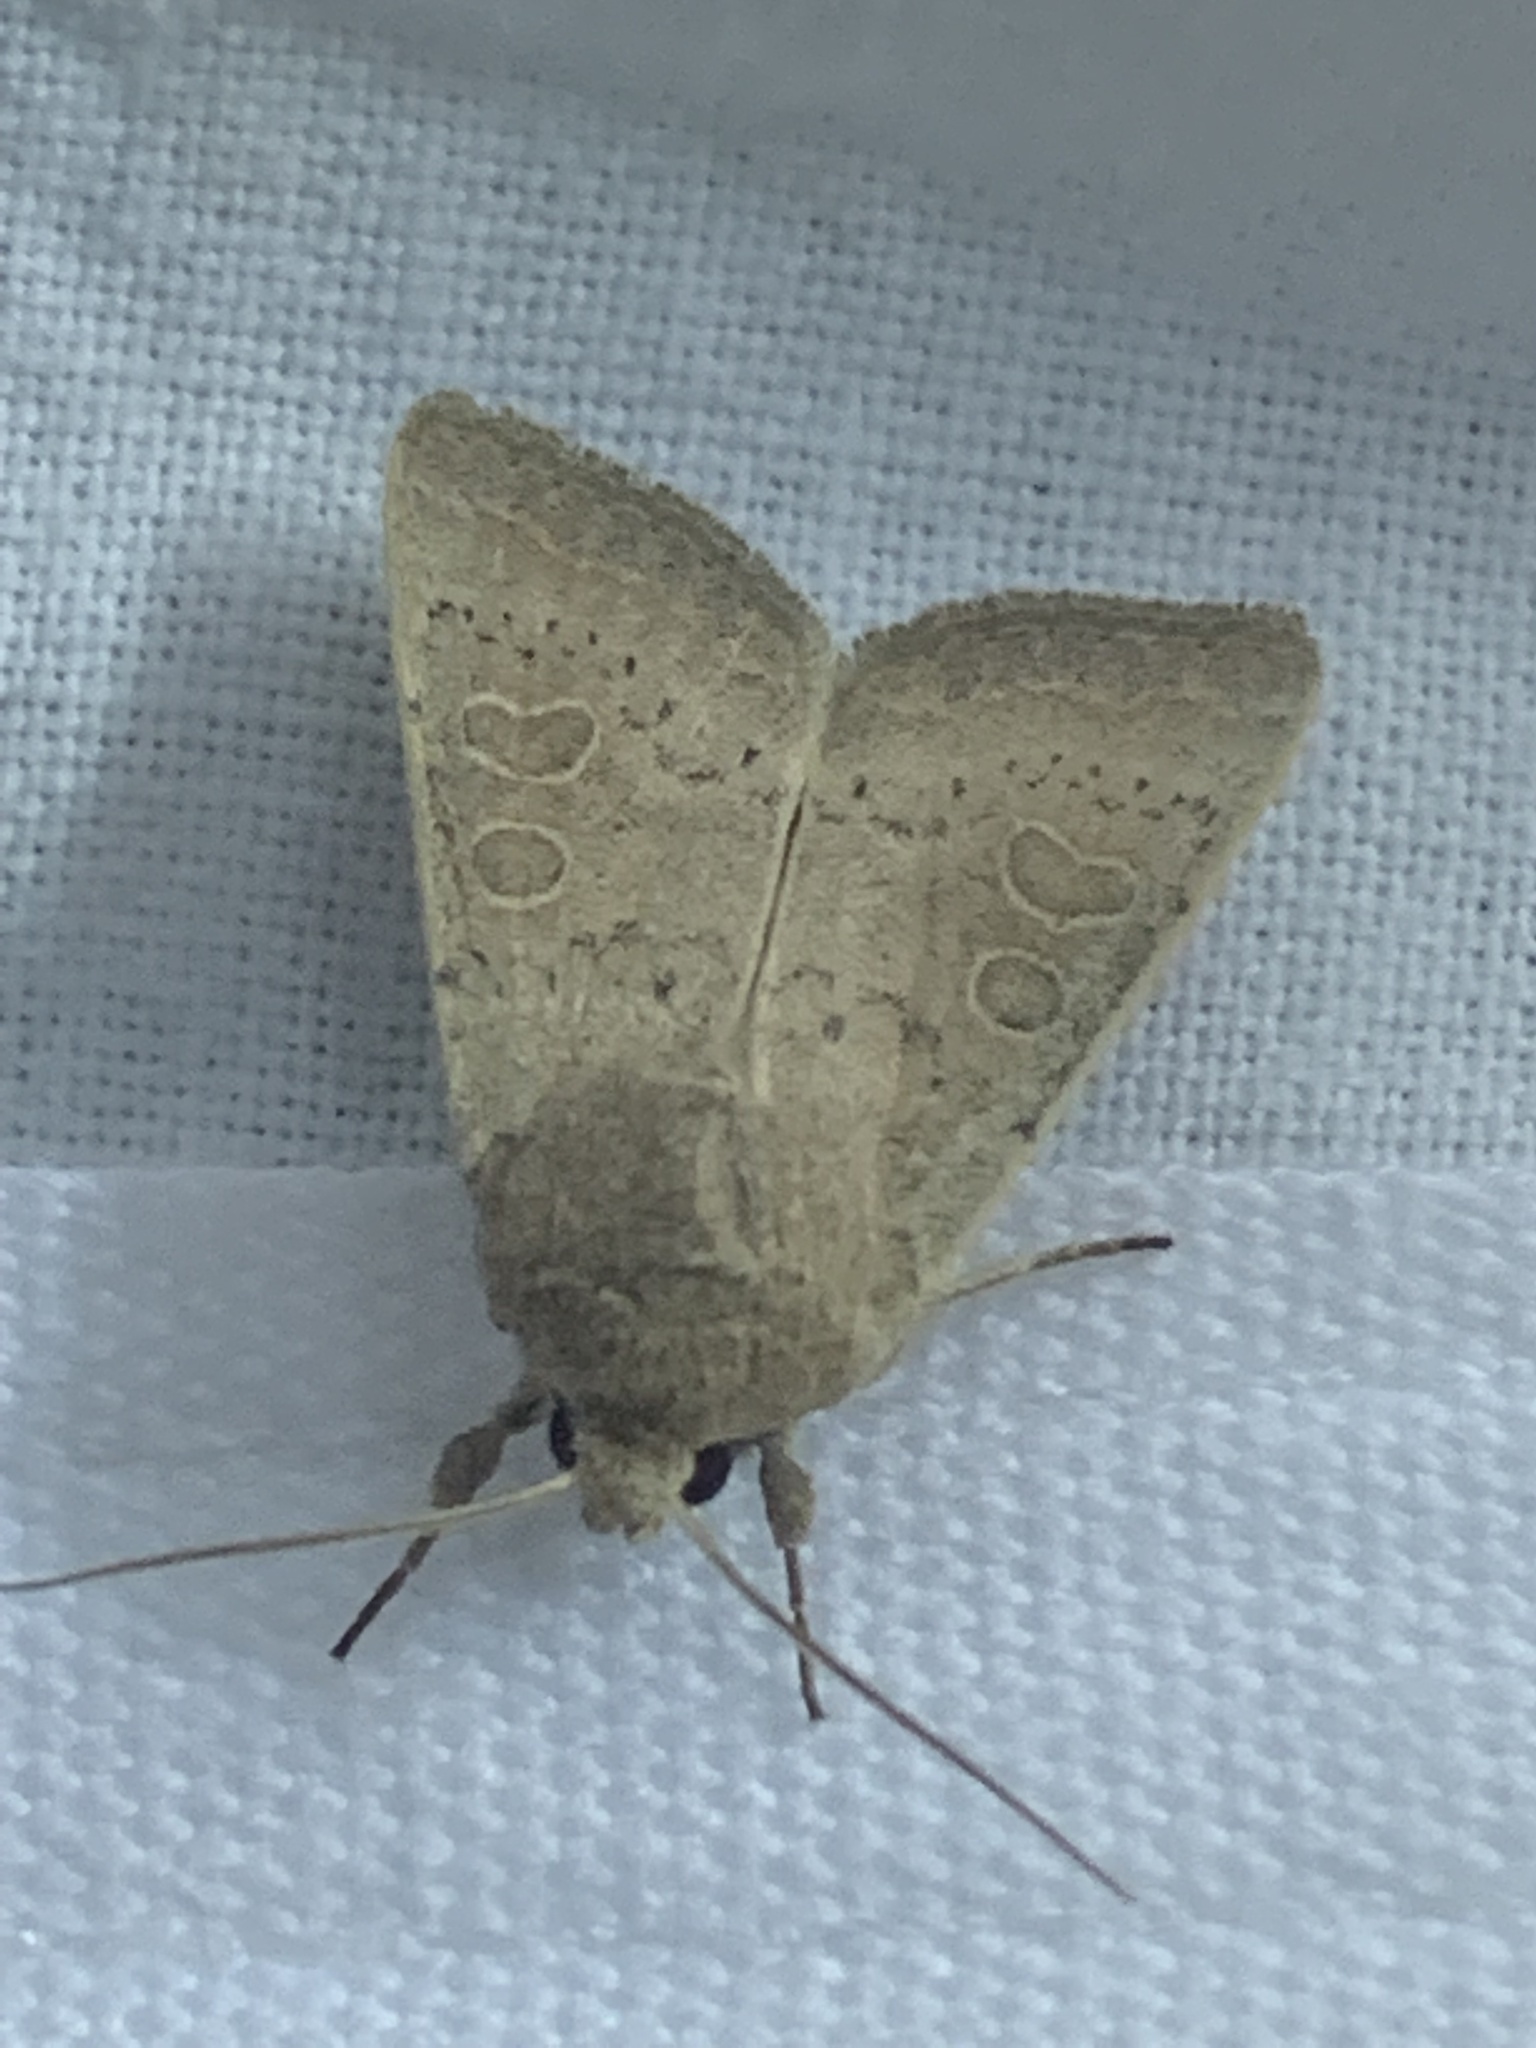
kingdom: Animalia
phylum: Arthropoda
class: Insecta
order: Lepidoptera
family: Noctuidae
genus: Hoplodrina
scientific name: Hoplodrina ambigua
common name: Vine's rustic
